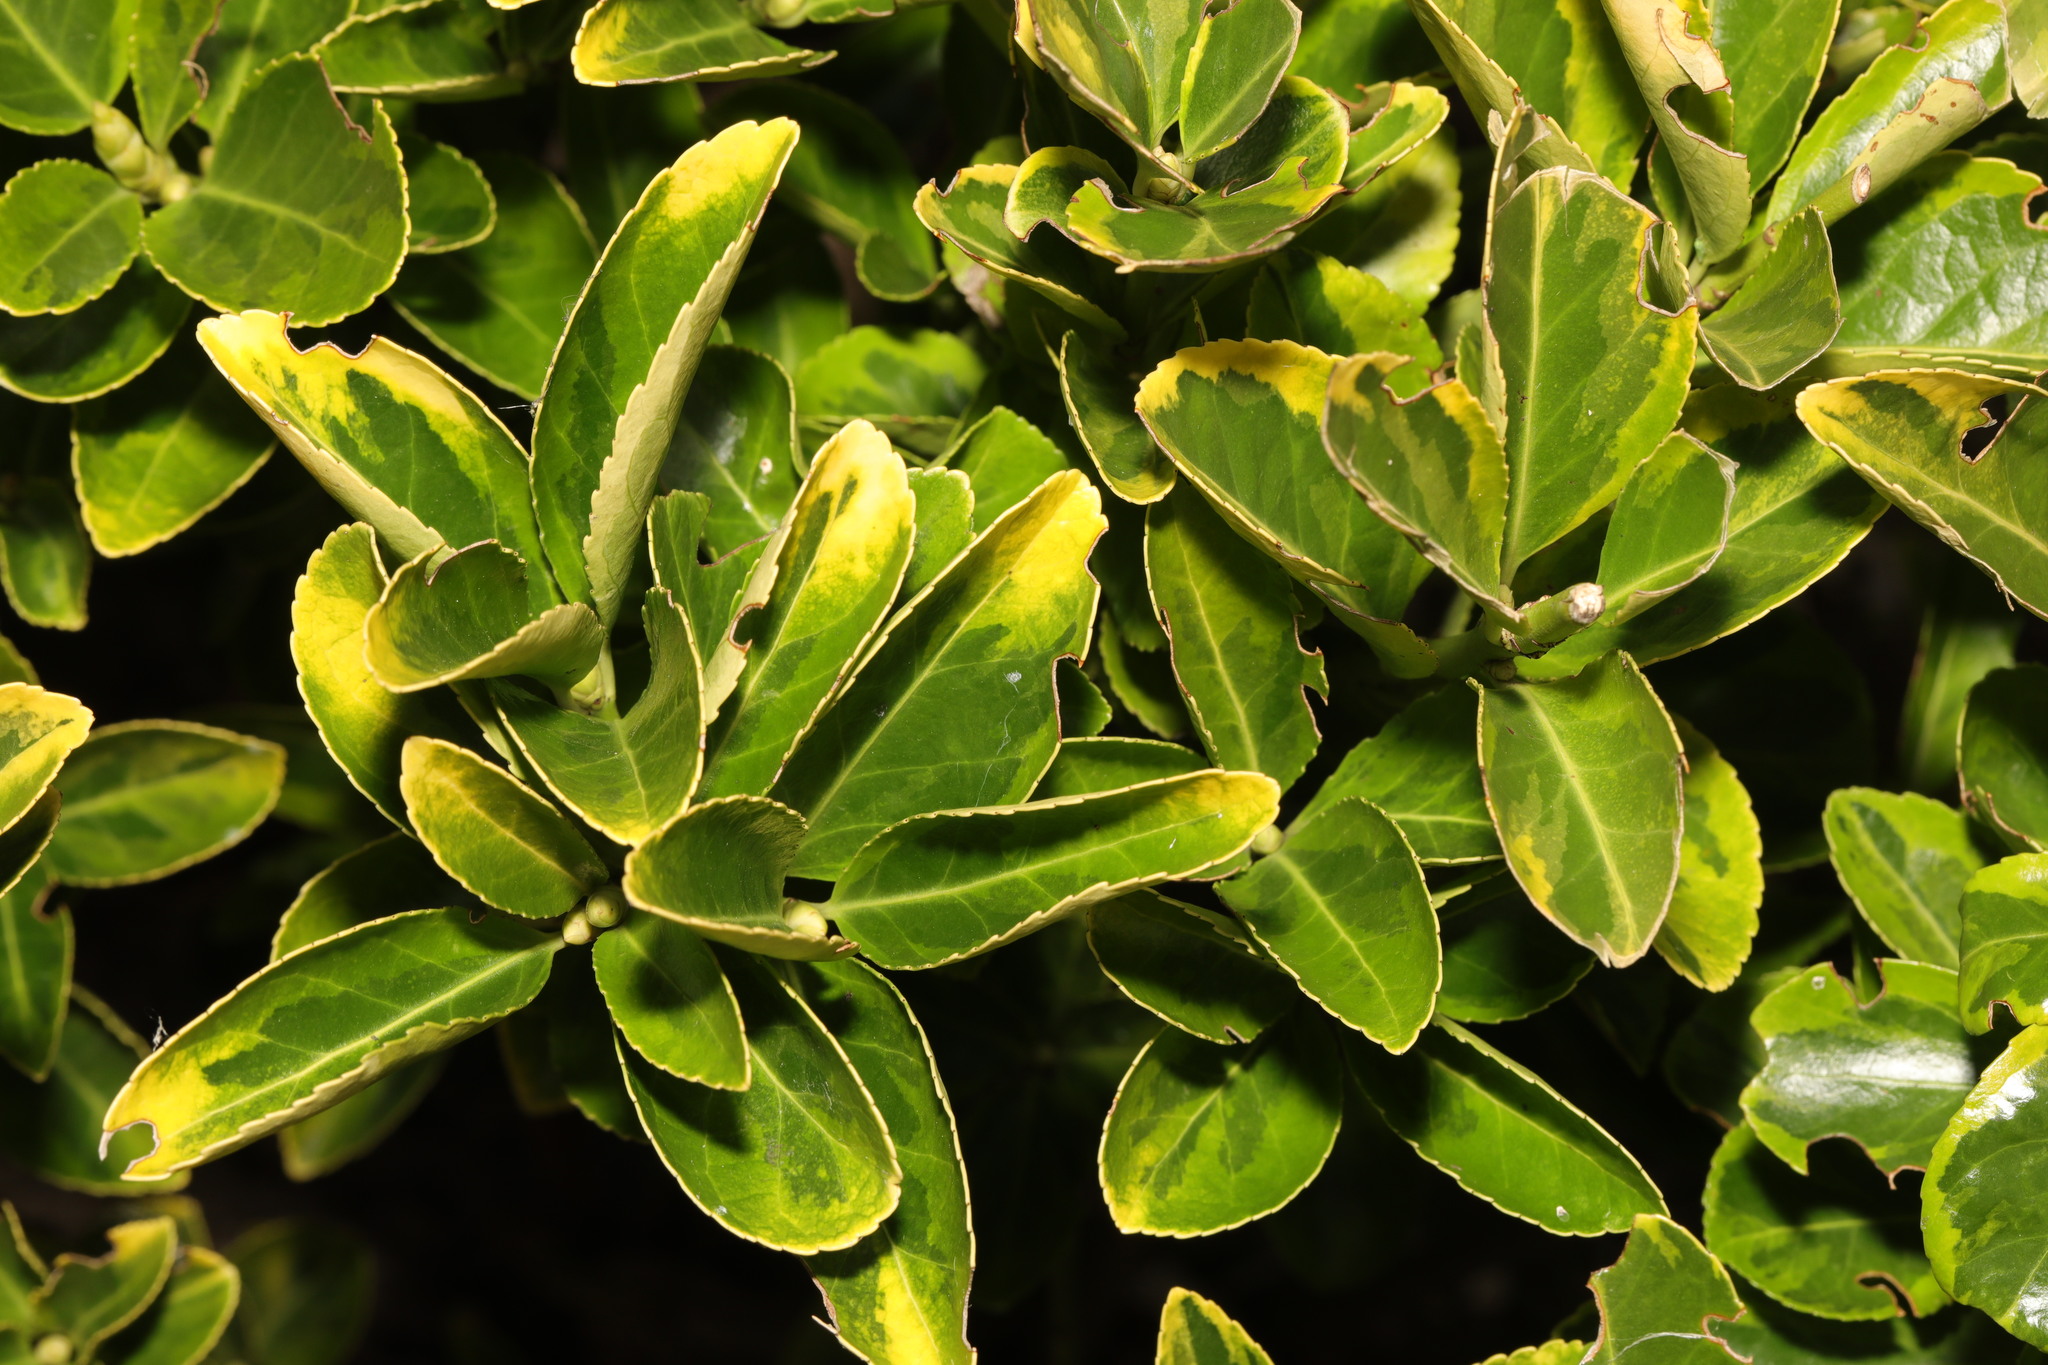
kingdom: Plantae
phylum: Tracheophyta
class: Magnoliopsida
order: Celastrales
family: Celastraceae
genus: Euonymus
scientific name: Euonymus japonicus
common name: Japanese spindletree
